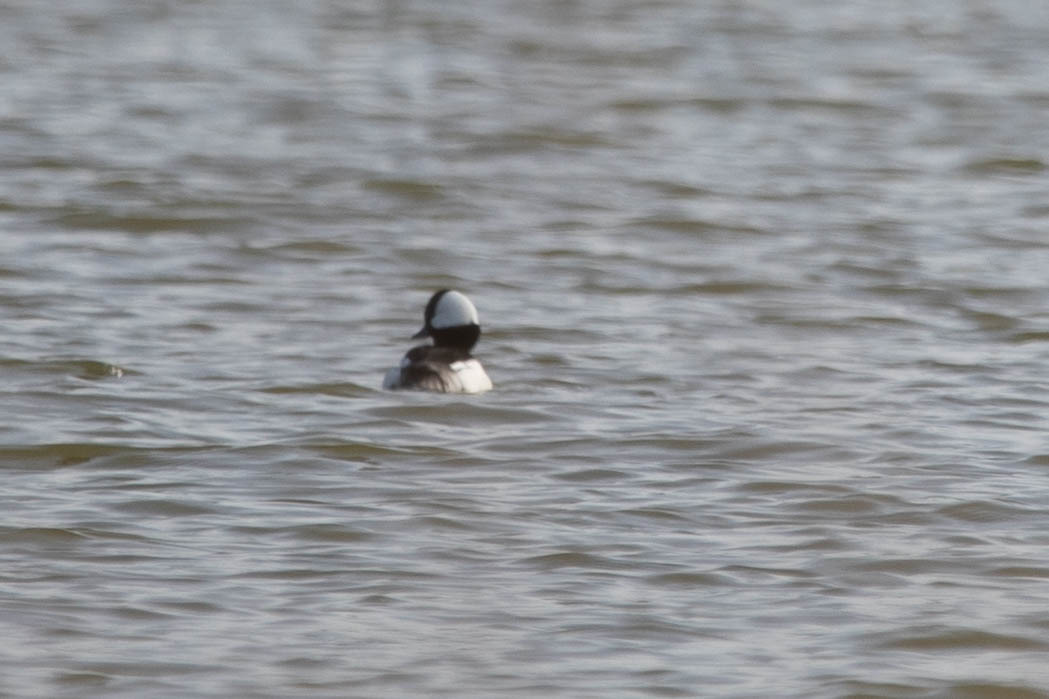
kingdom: Animalia
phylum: Chordata
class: Aves
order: Anseriformes
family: Anatidae
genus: Bucephala
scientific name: Bucephala albeola
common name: Bufflehead
